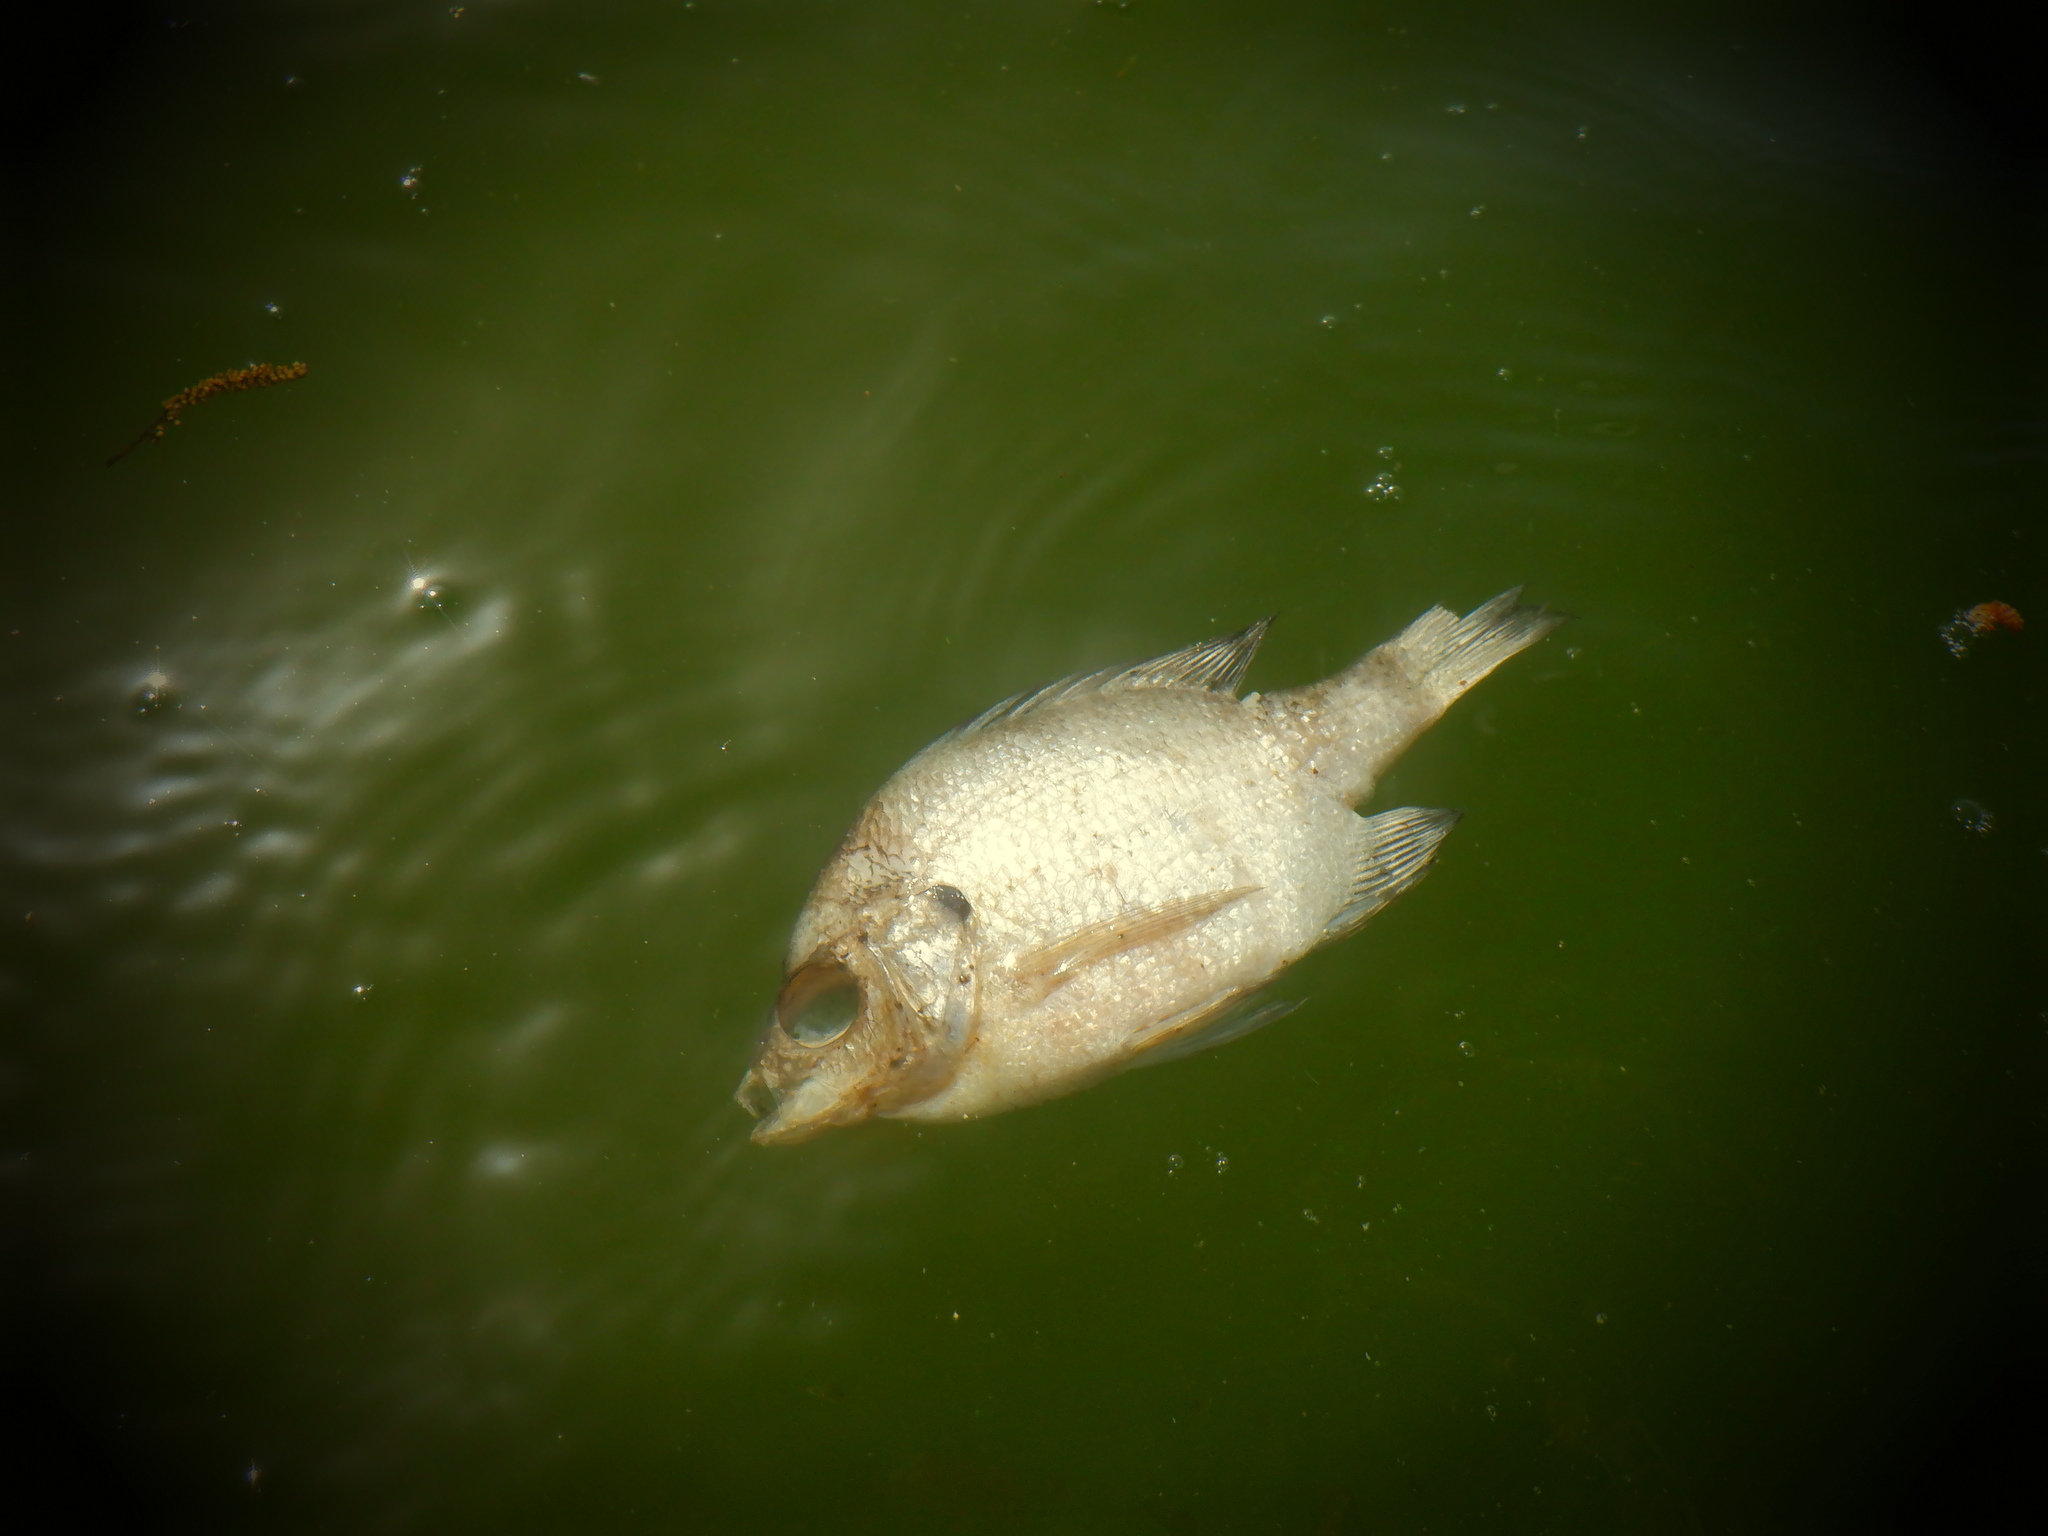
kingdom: Animalia
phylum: Chordata
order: Perciformes
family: Centrarchidae
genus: Lepomis
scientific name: Lepomis macrochirus
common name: Bluegill
